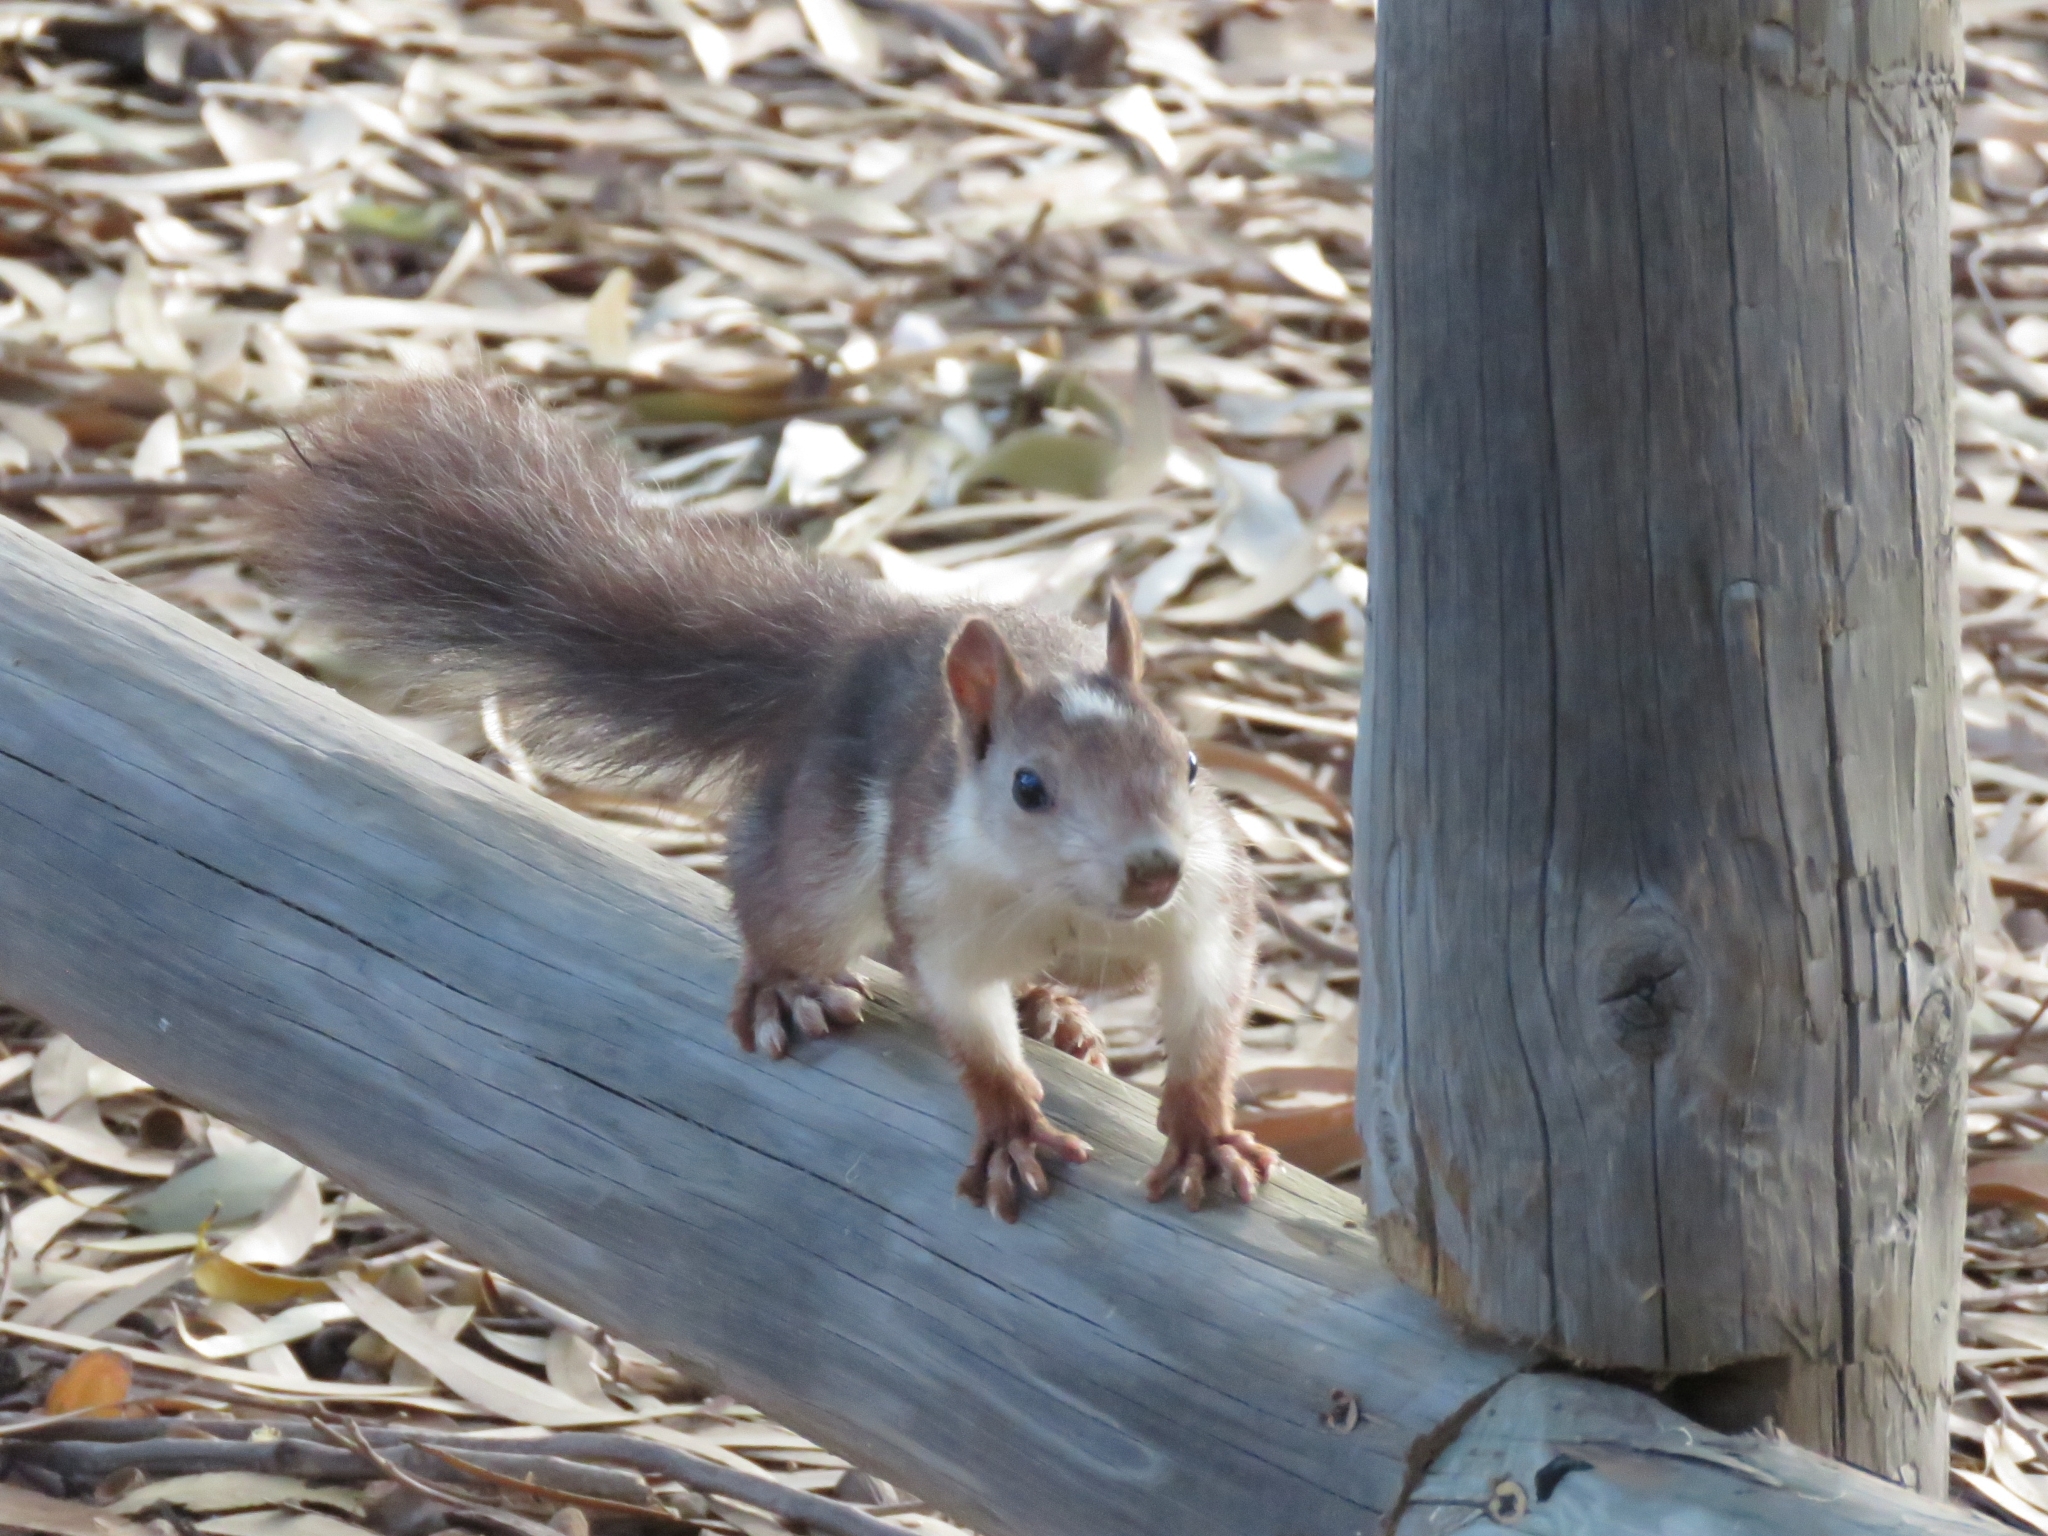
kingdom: Animalia
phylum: Chordata
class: Mammalia
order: Rodentia
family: Sciuridae
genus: Sciurus
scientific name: Sciurus vulgaris
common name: Eurasian red squirrel
